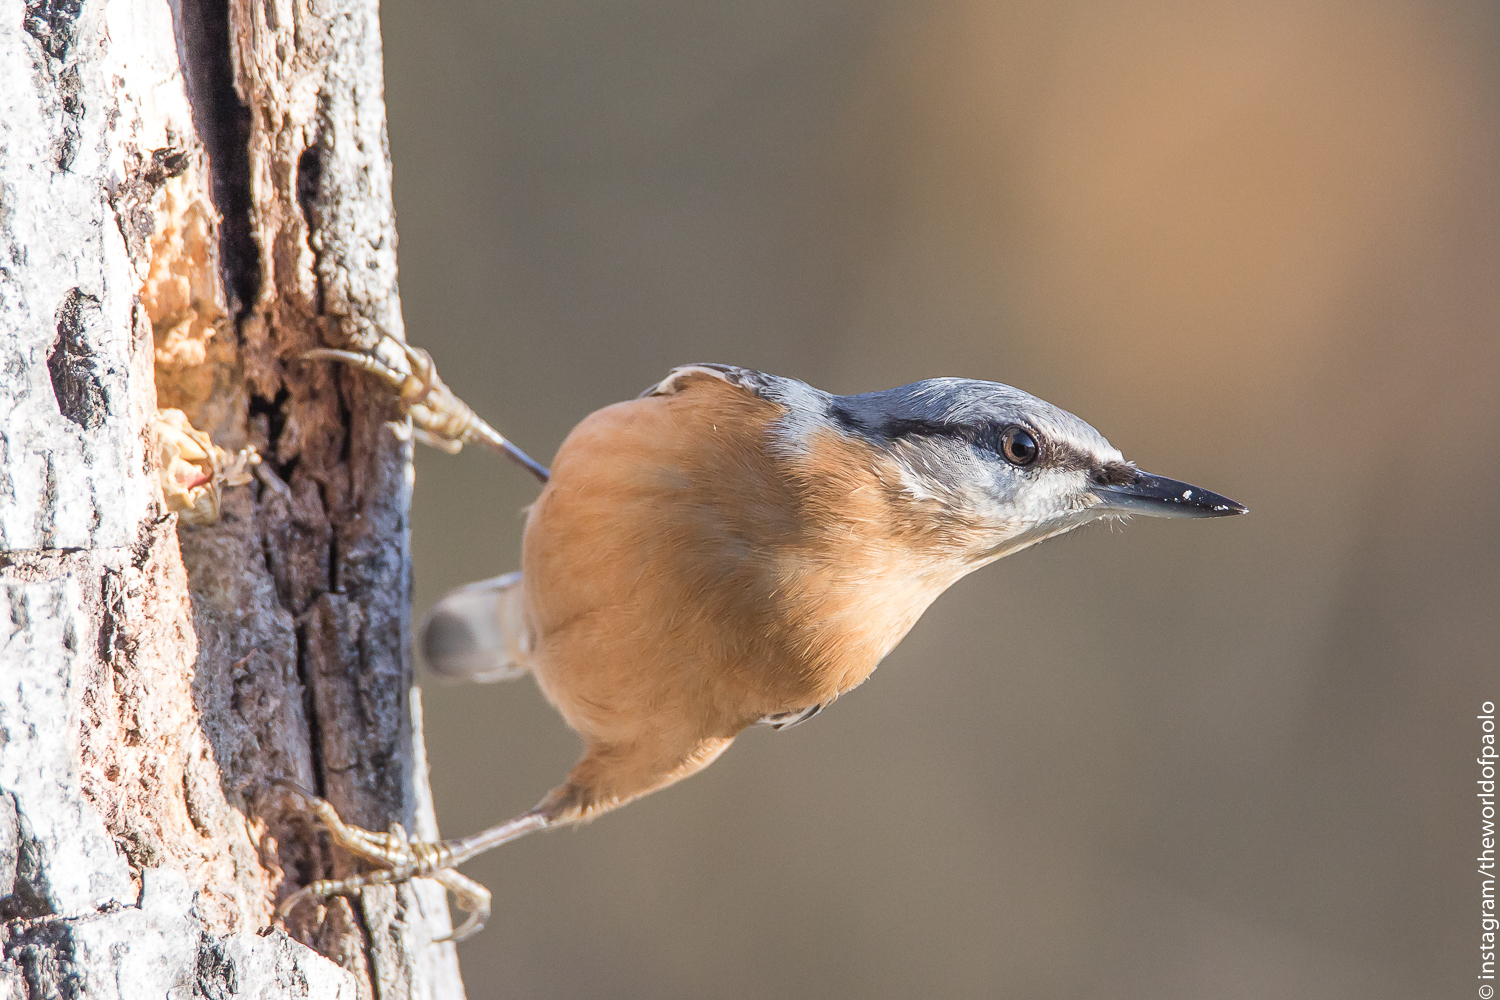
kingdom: Animalia
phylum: Chordata
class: Aves
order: Passeriformes
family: Sittidae
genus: Sitta
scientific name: Sitta europaea
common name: Eurasian nuthatch
